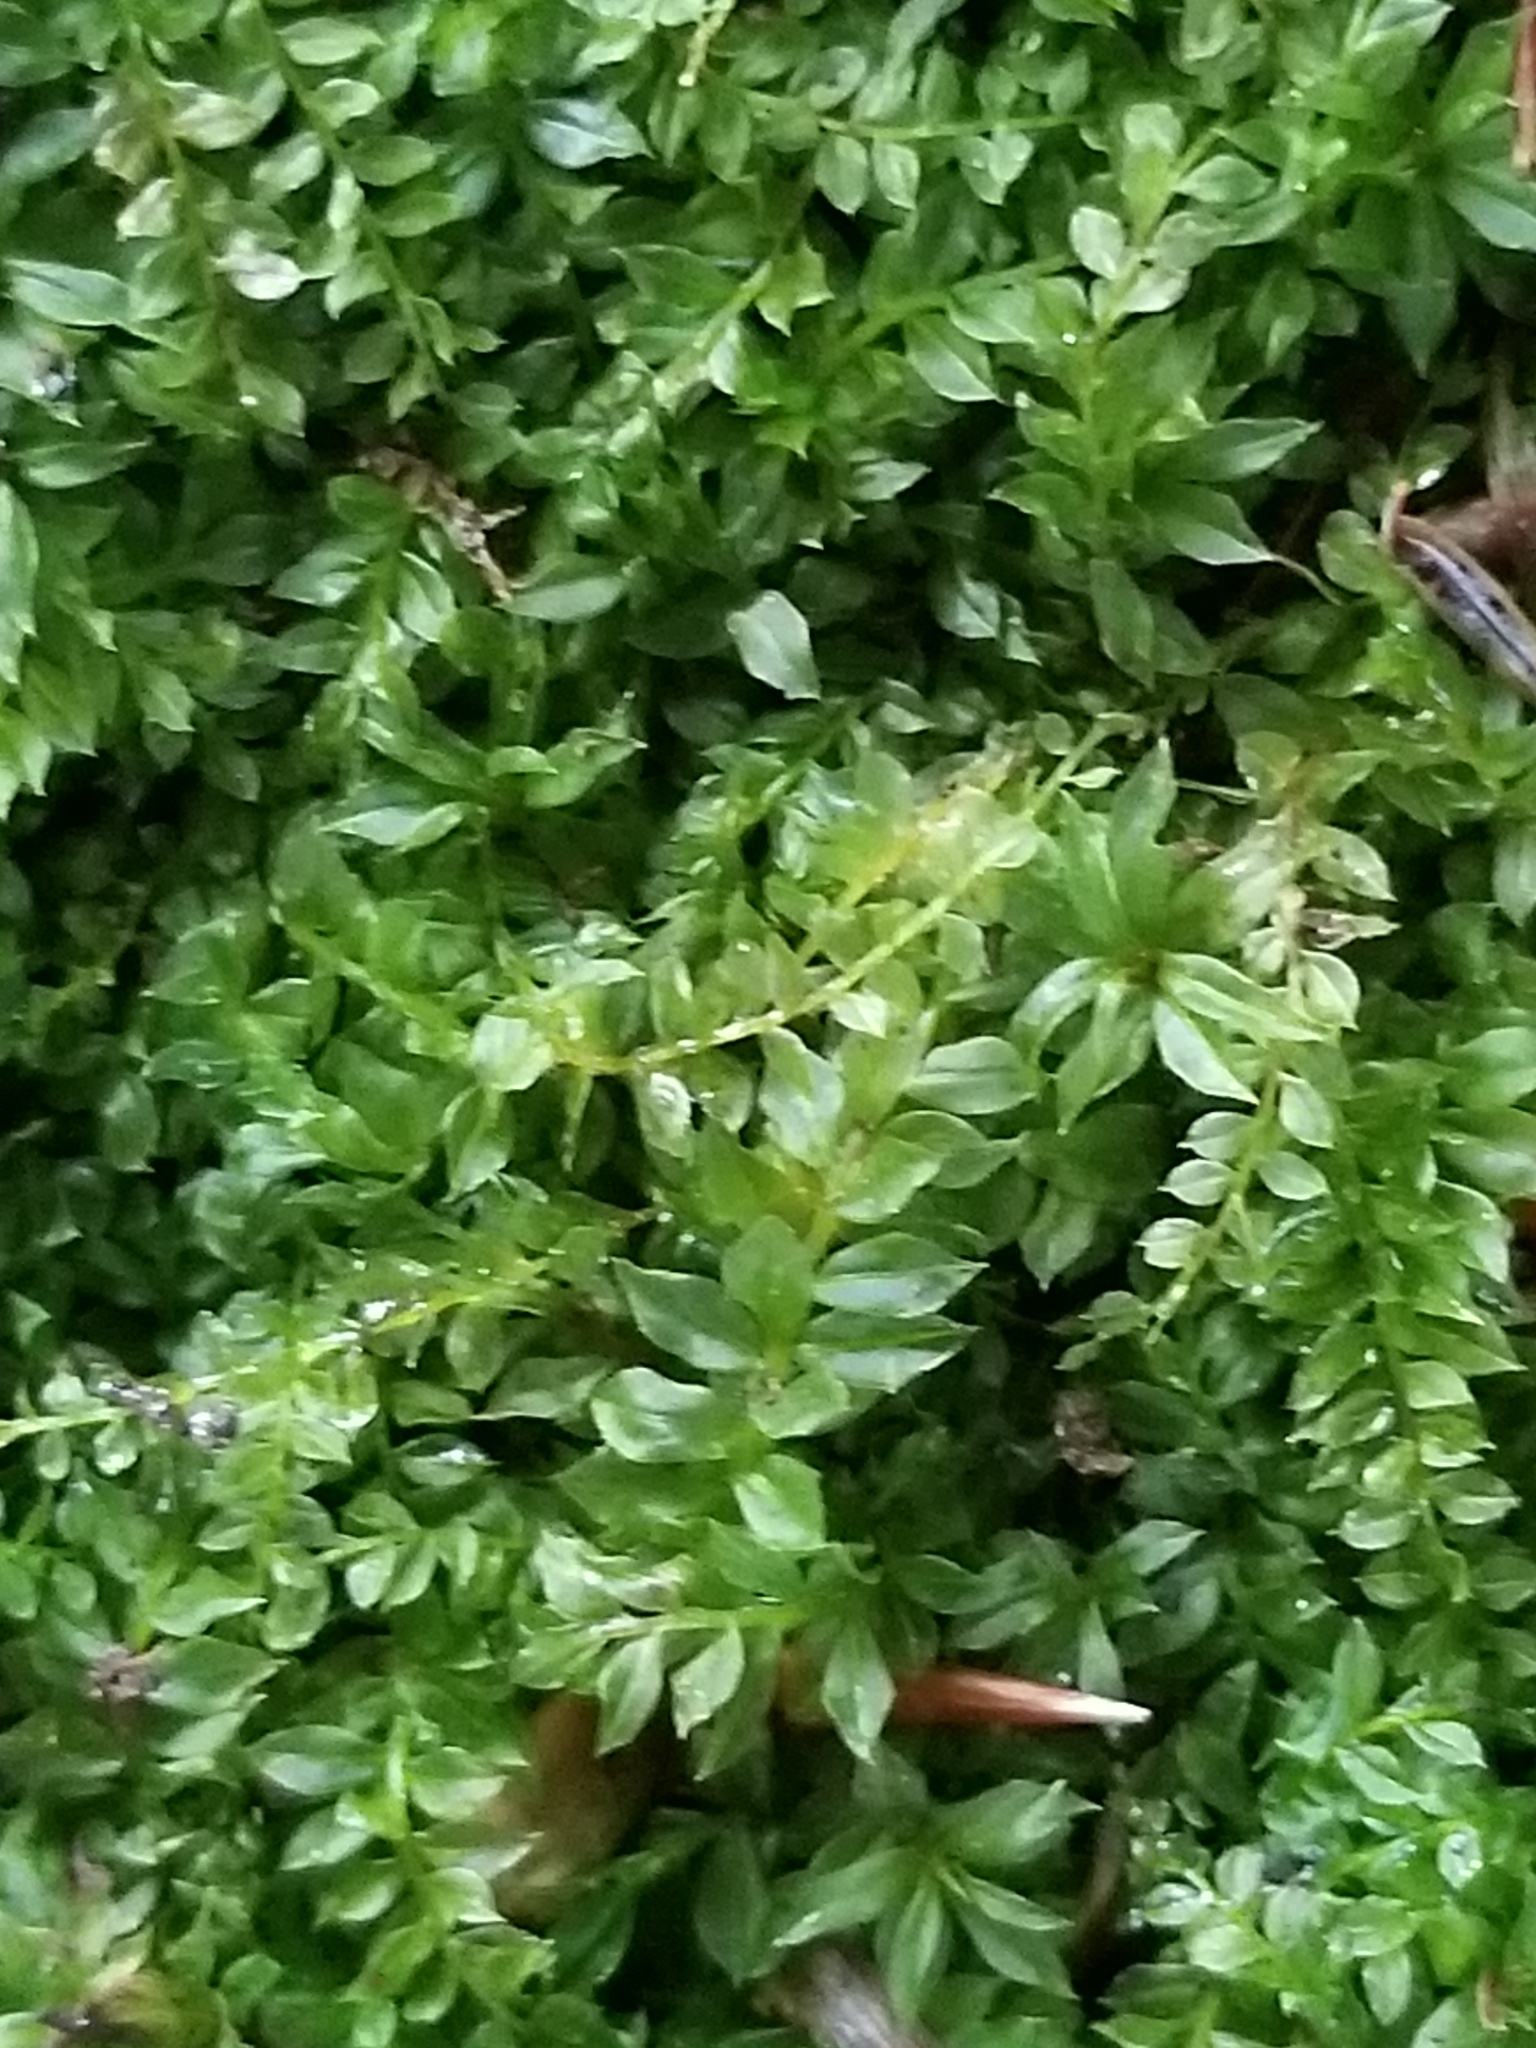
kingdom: Plantae
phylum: Bryophyta
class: Bryopsida
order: Bryales
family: Mniaceae
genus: Plagiomnium
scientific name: Plagiomnium cuspidatum
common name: Woodsy leafy moss
